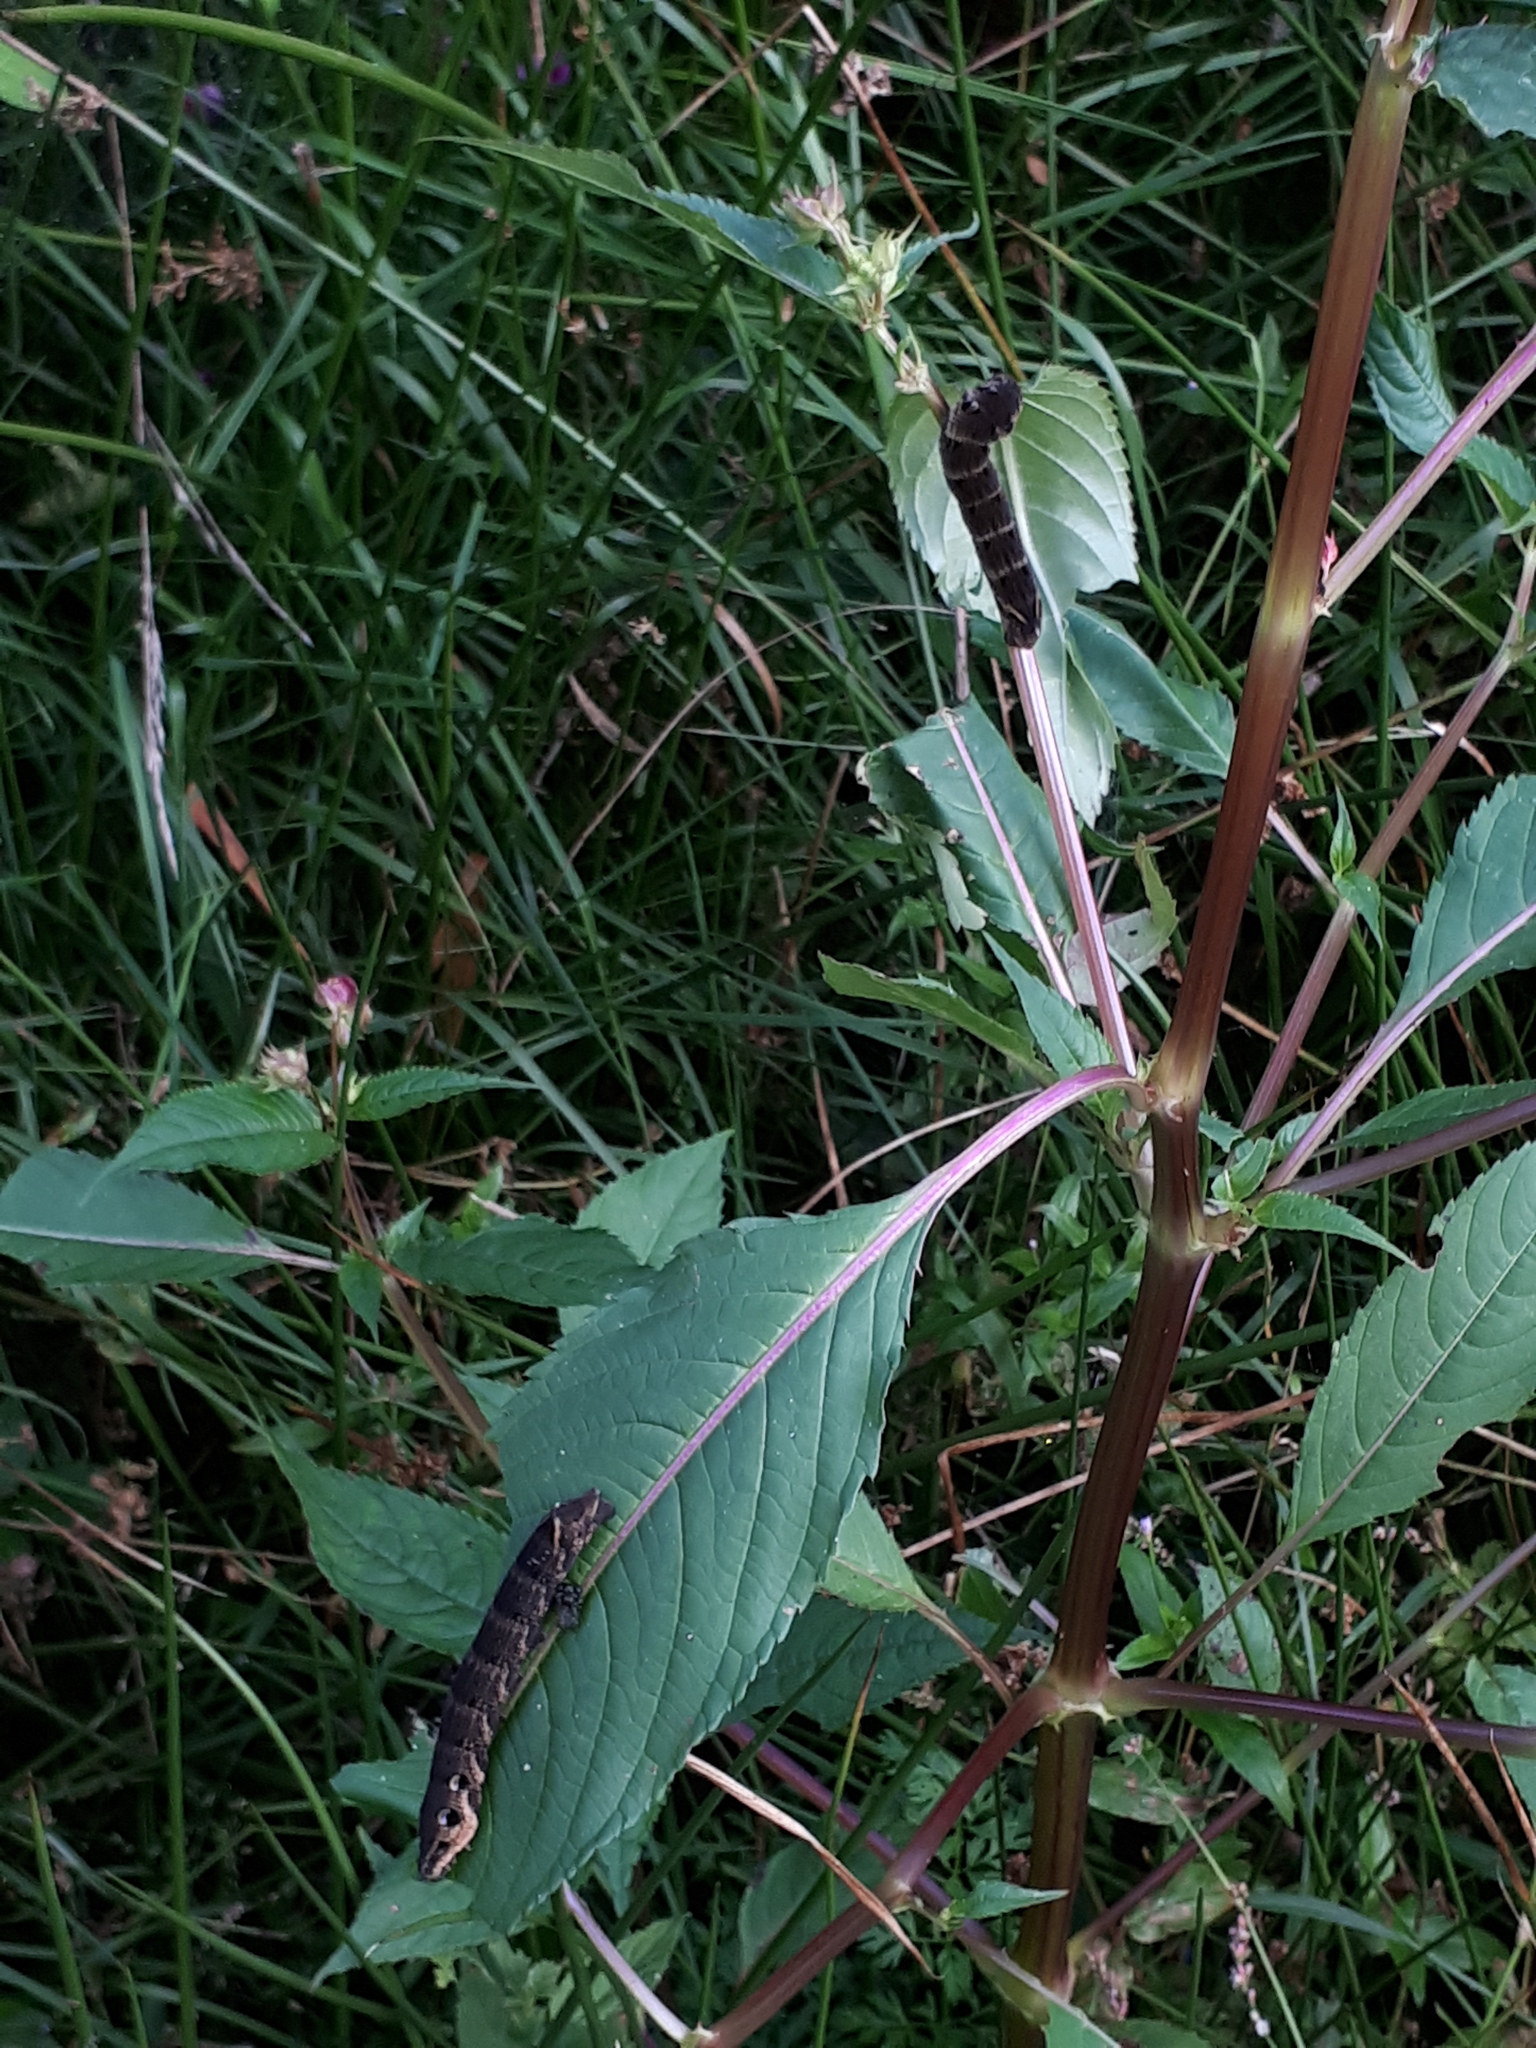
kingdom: Animalia
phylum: Arthropoda
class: Insecta
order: Lepidoptera
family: Sphingidae
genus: Deilephila
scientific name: Deilephila elpenor
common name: Elephant hawk-moth
